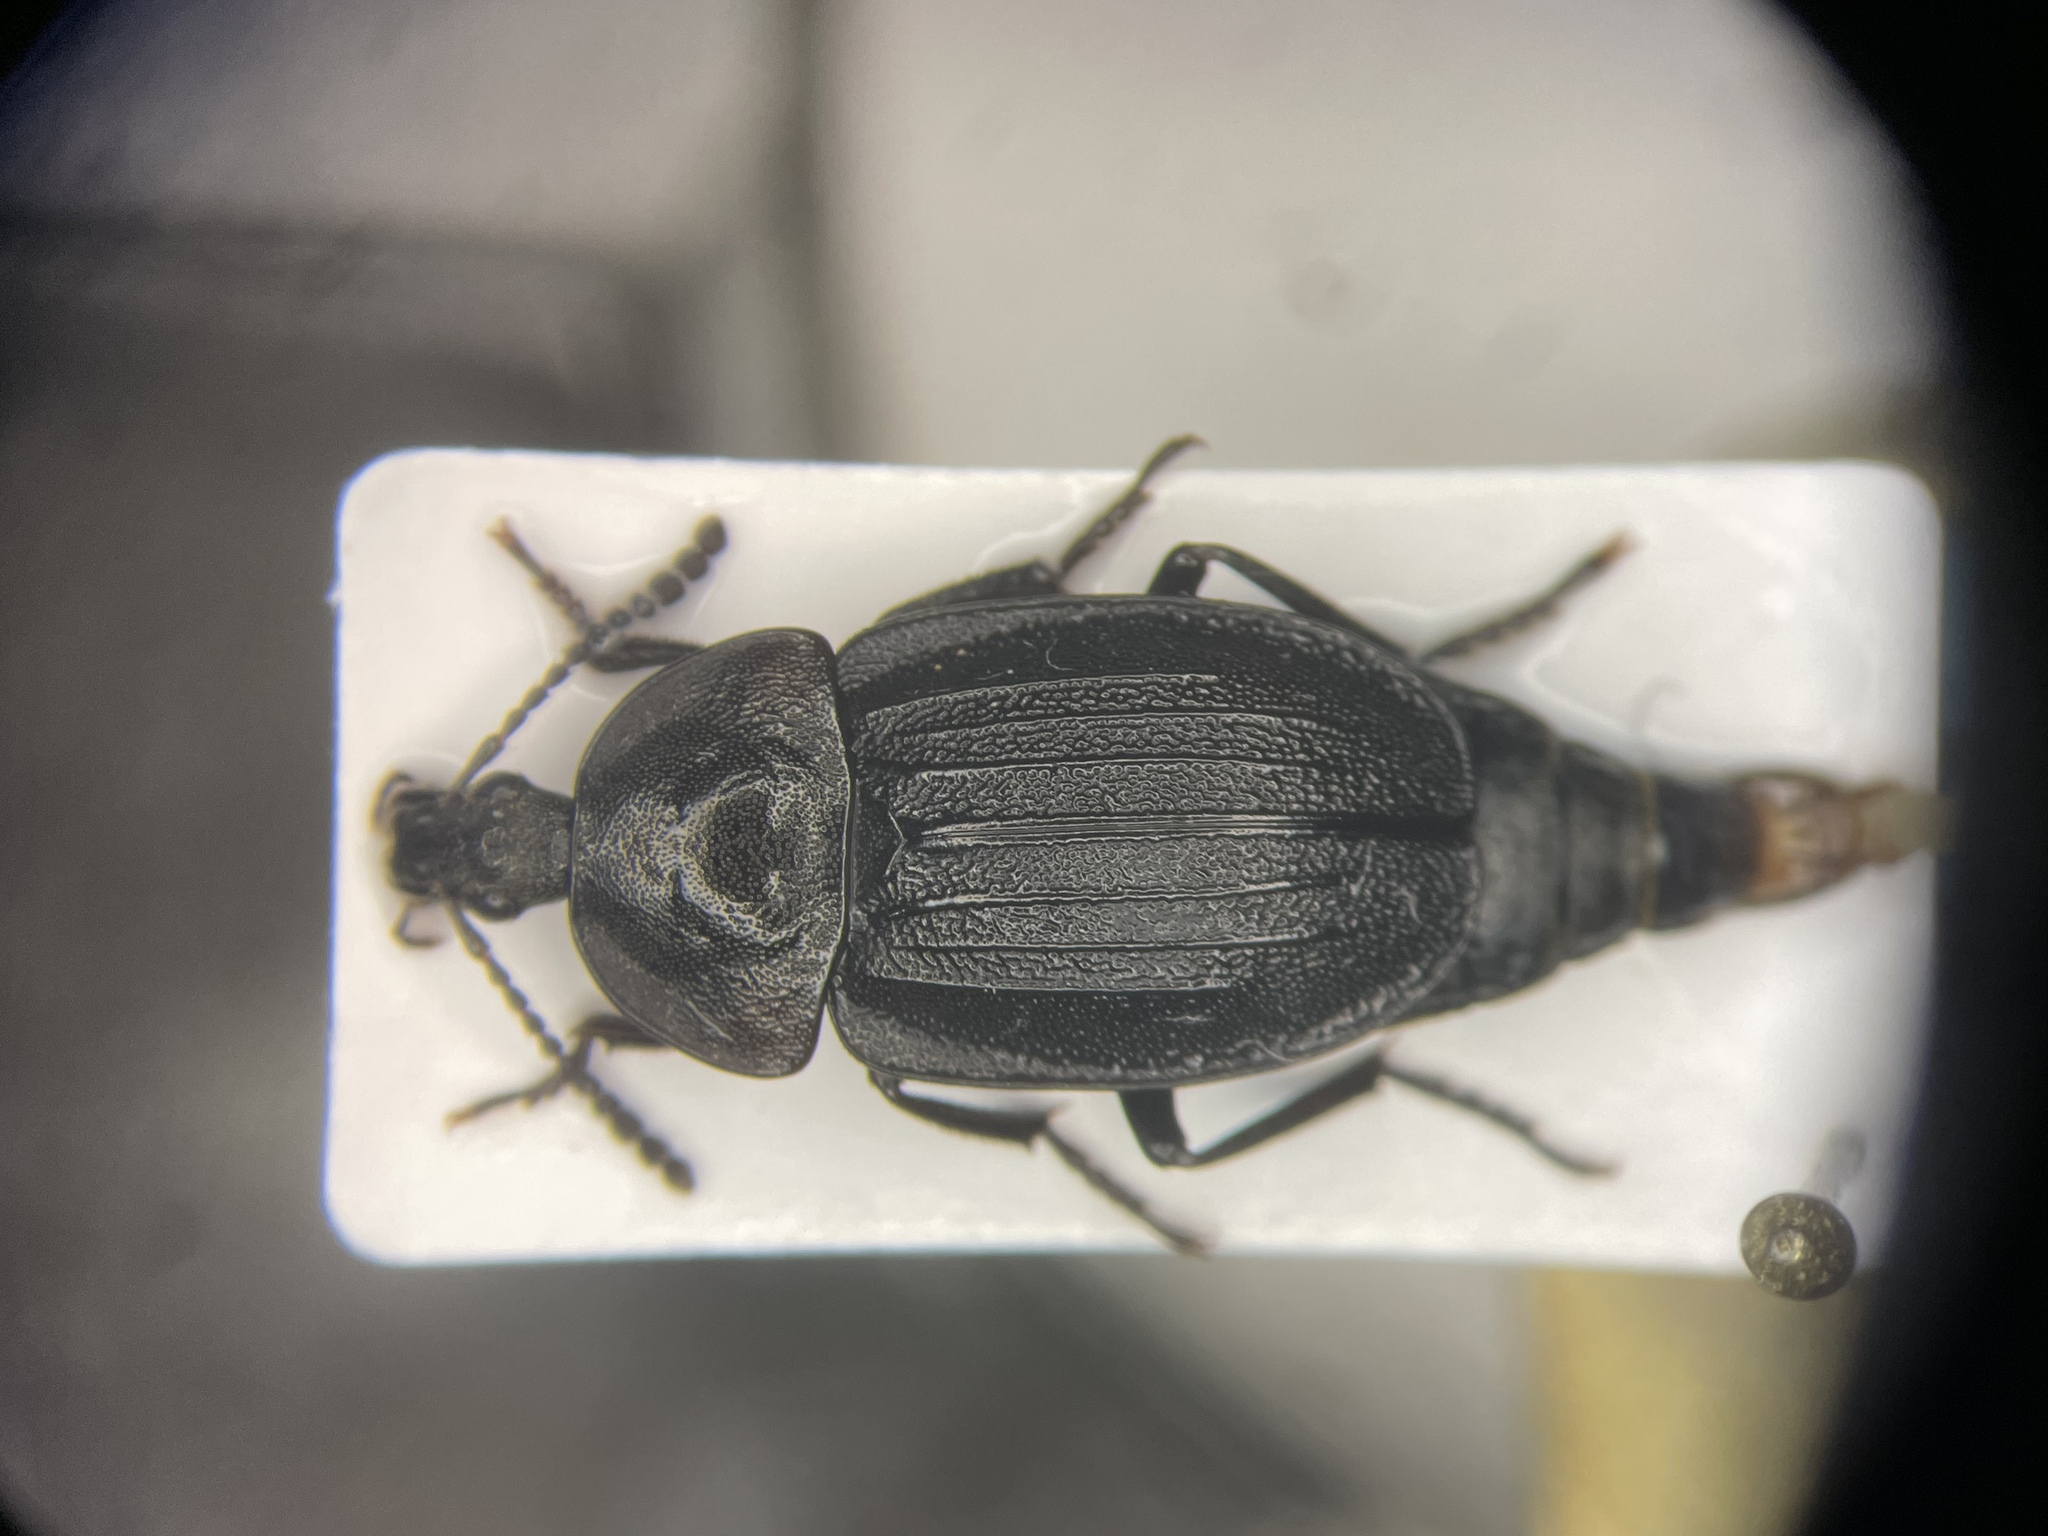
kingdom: Animalia
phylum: Arthropoda
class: Insecta
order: Coleoptera
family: Staphylinidae
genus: Silpha
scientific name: Silpha atrata
